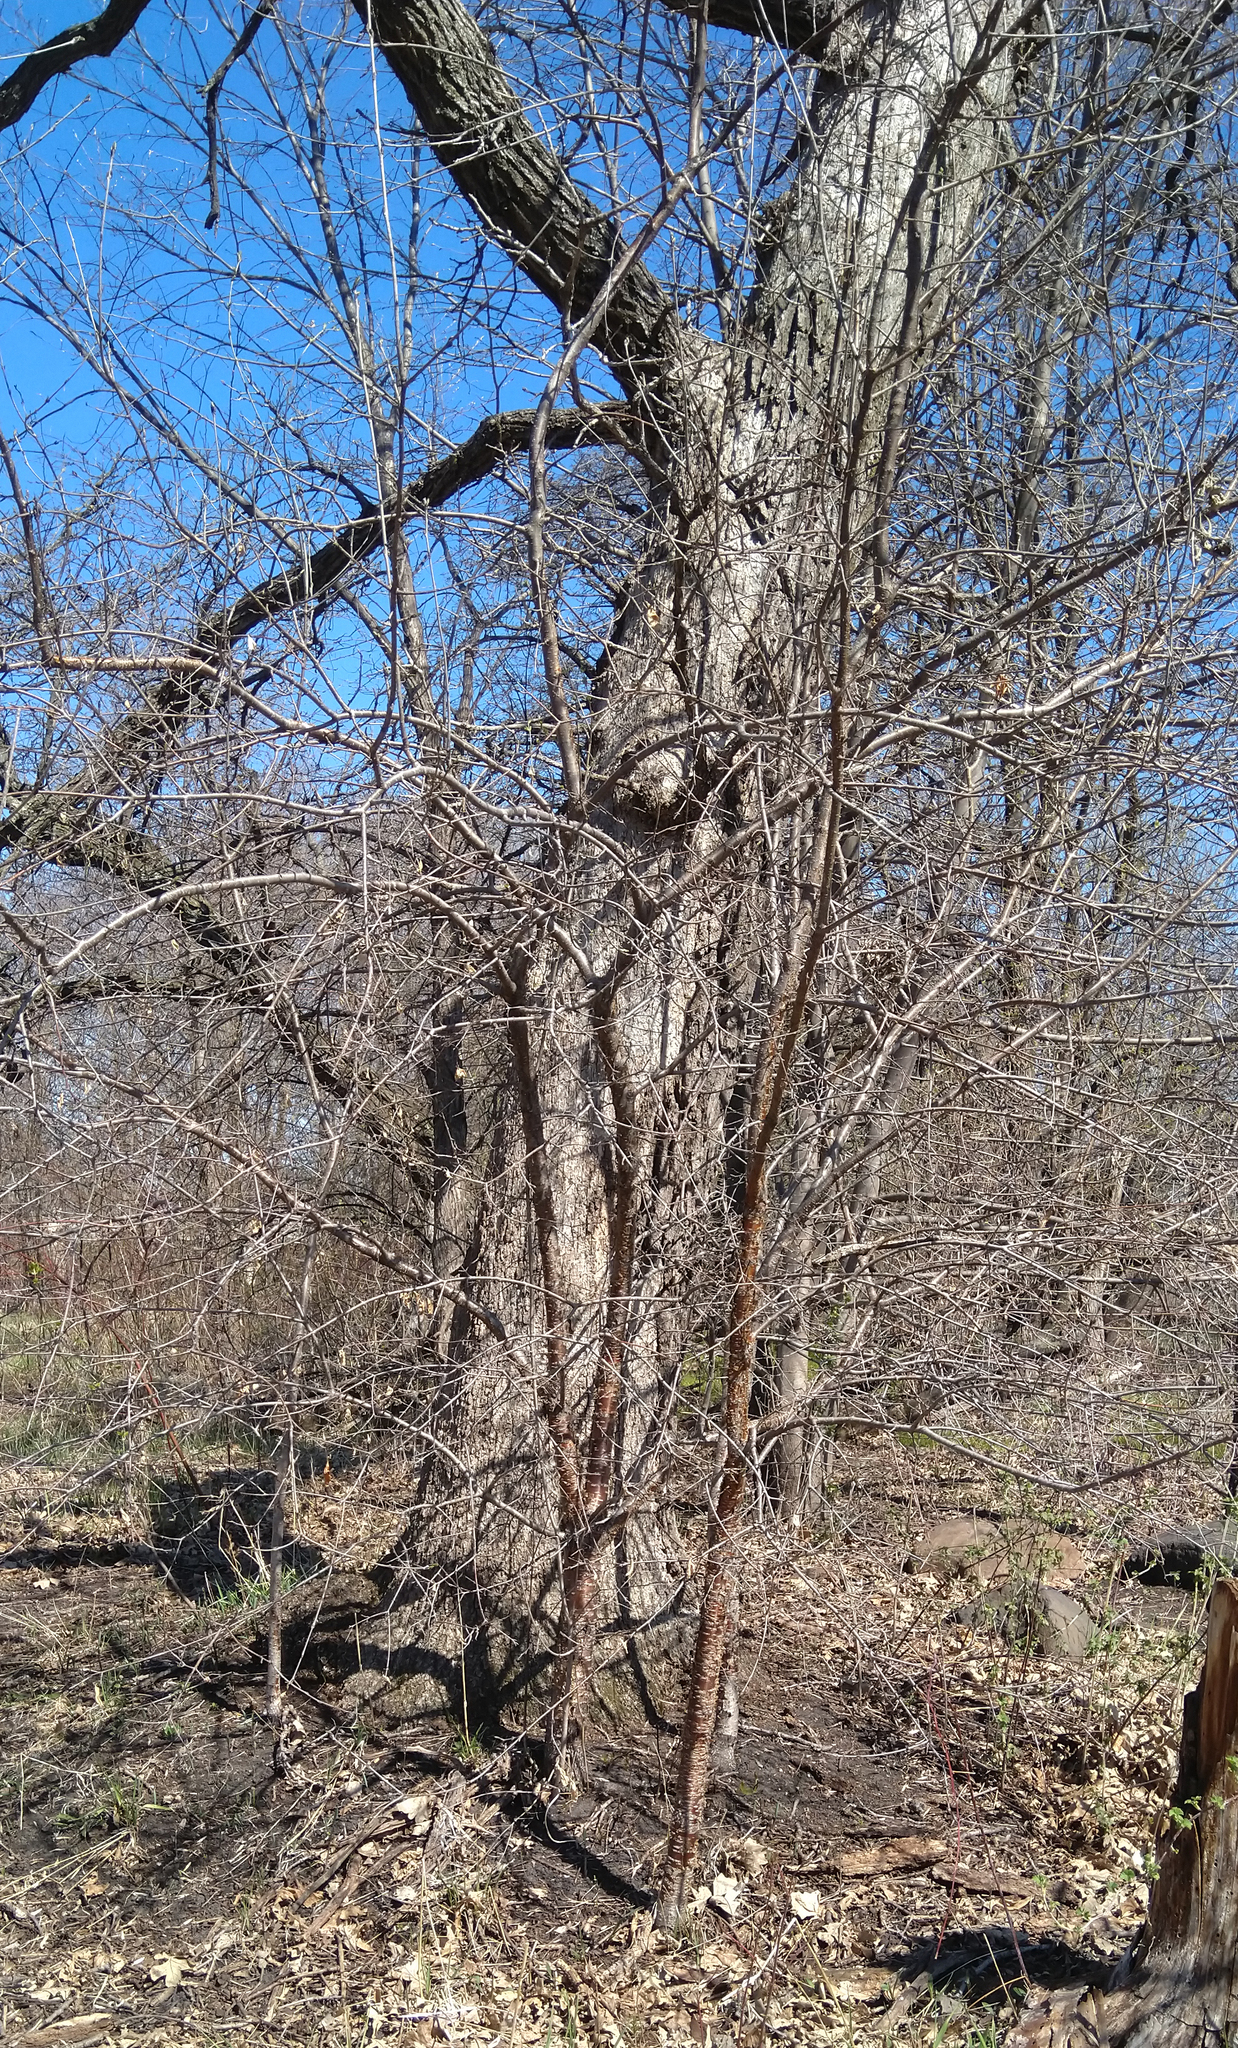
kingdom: Plantae
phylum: Tracheophyta
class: Magnoliopsida
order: Fagales
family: Betulaceae
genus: Betula
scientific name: Betula alleghaniensis
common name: Yellow birch
